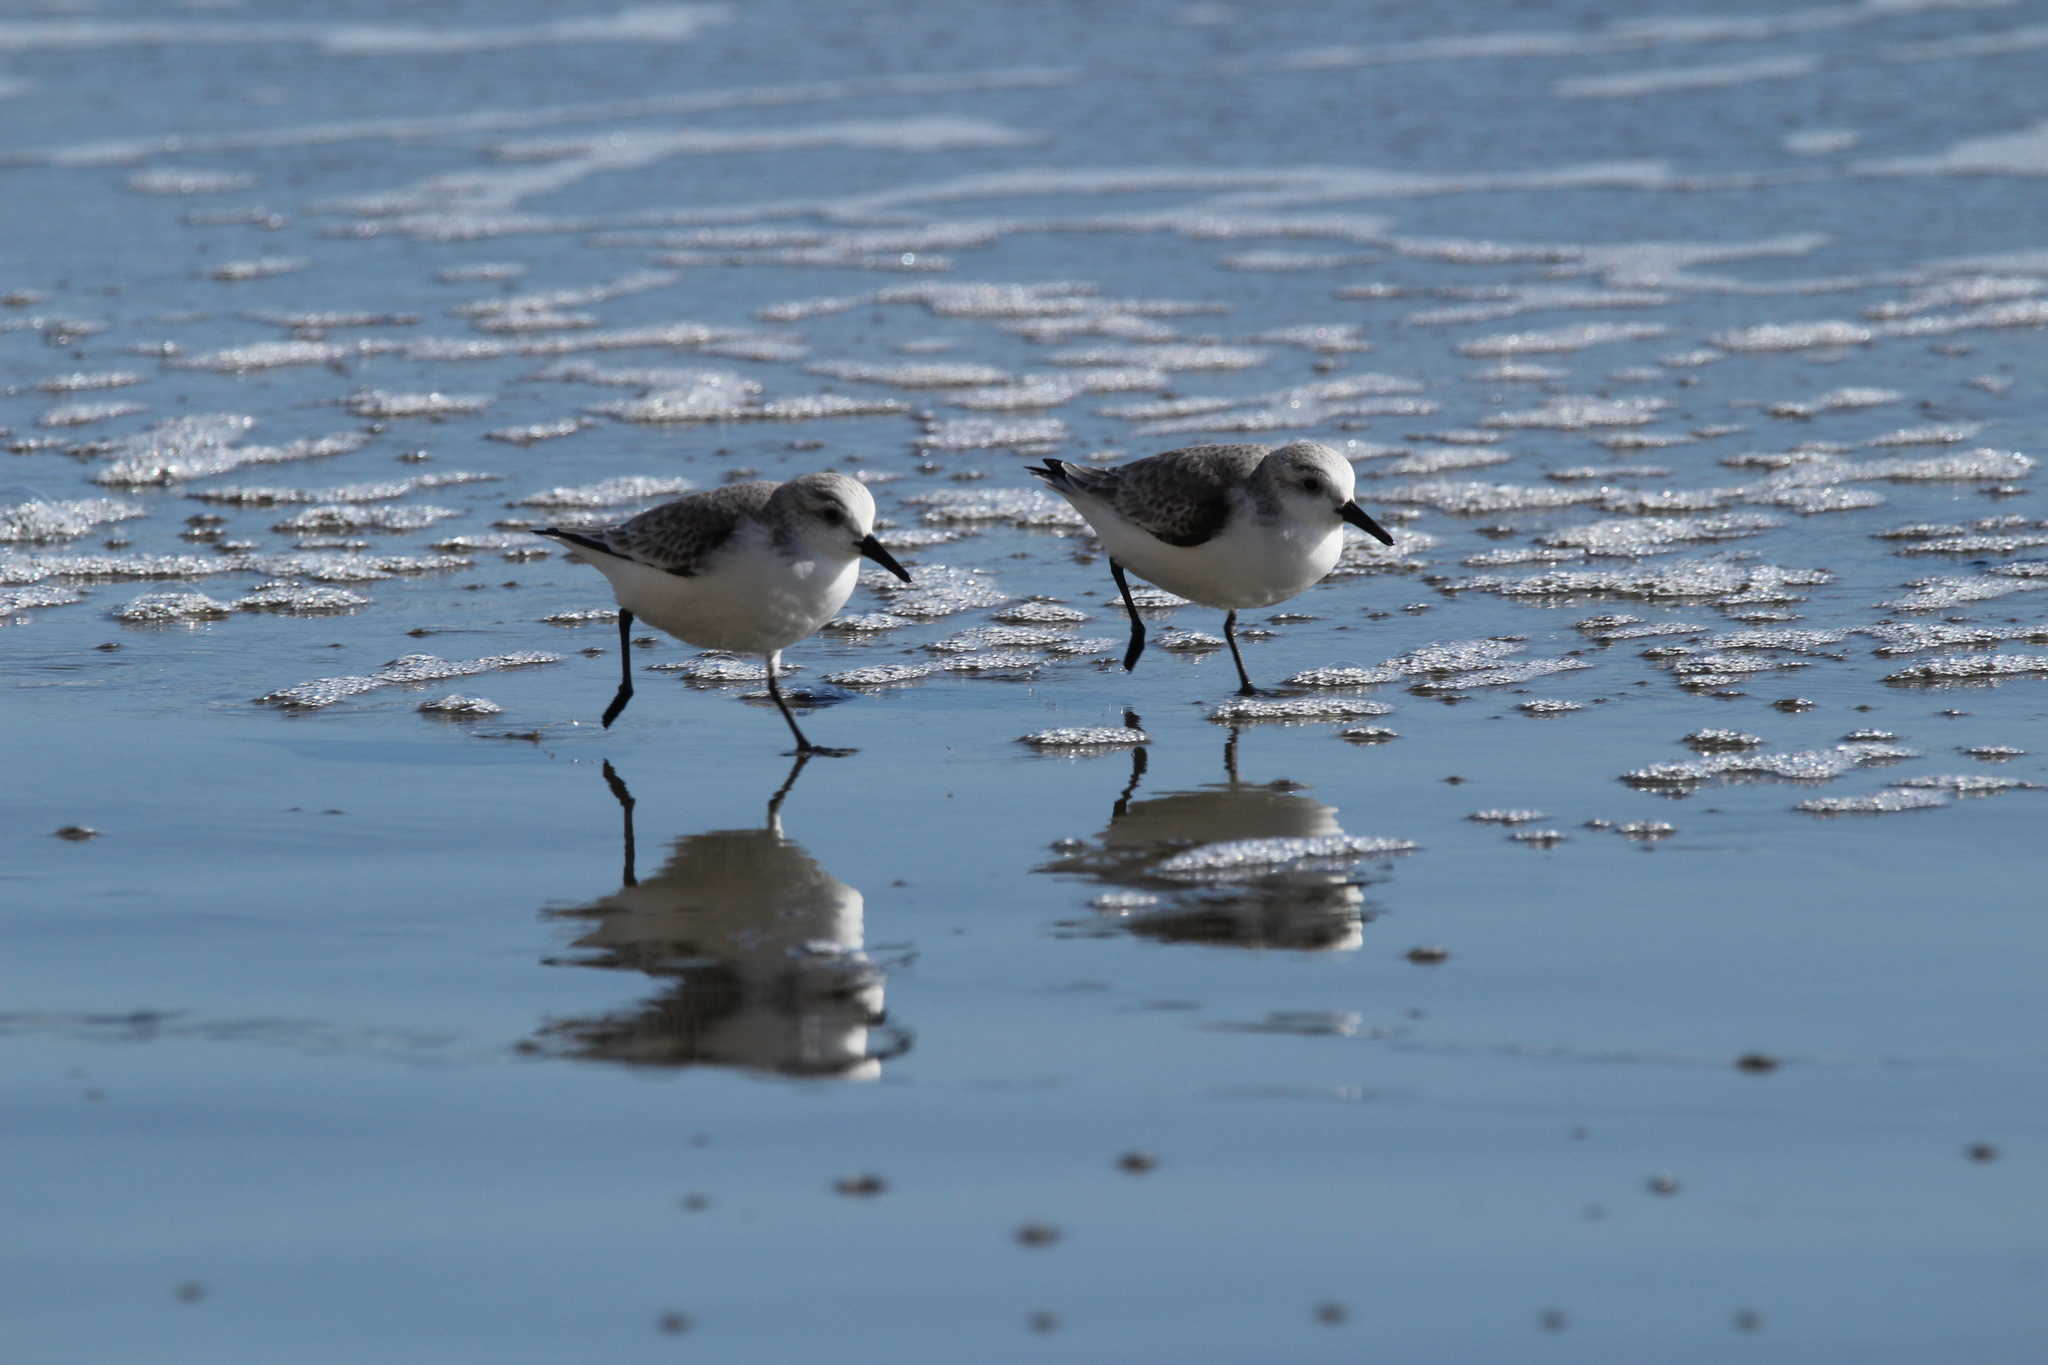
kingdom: Animalia
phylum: Chordata
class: Aves
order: Charadriiformes
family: Scolopacidae
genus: Calidris
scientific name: Calidris alba
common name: Sanderling
